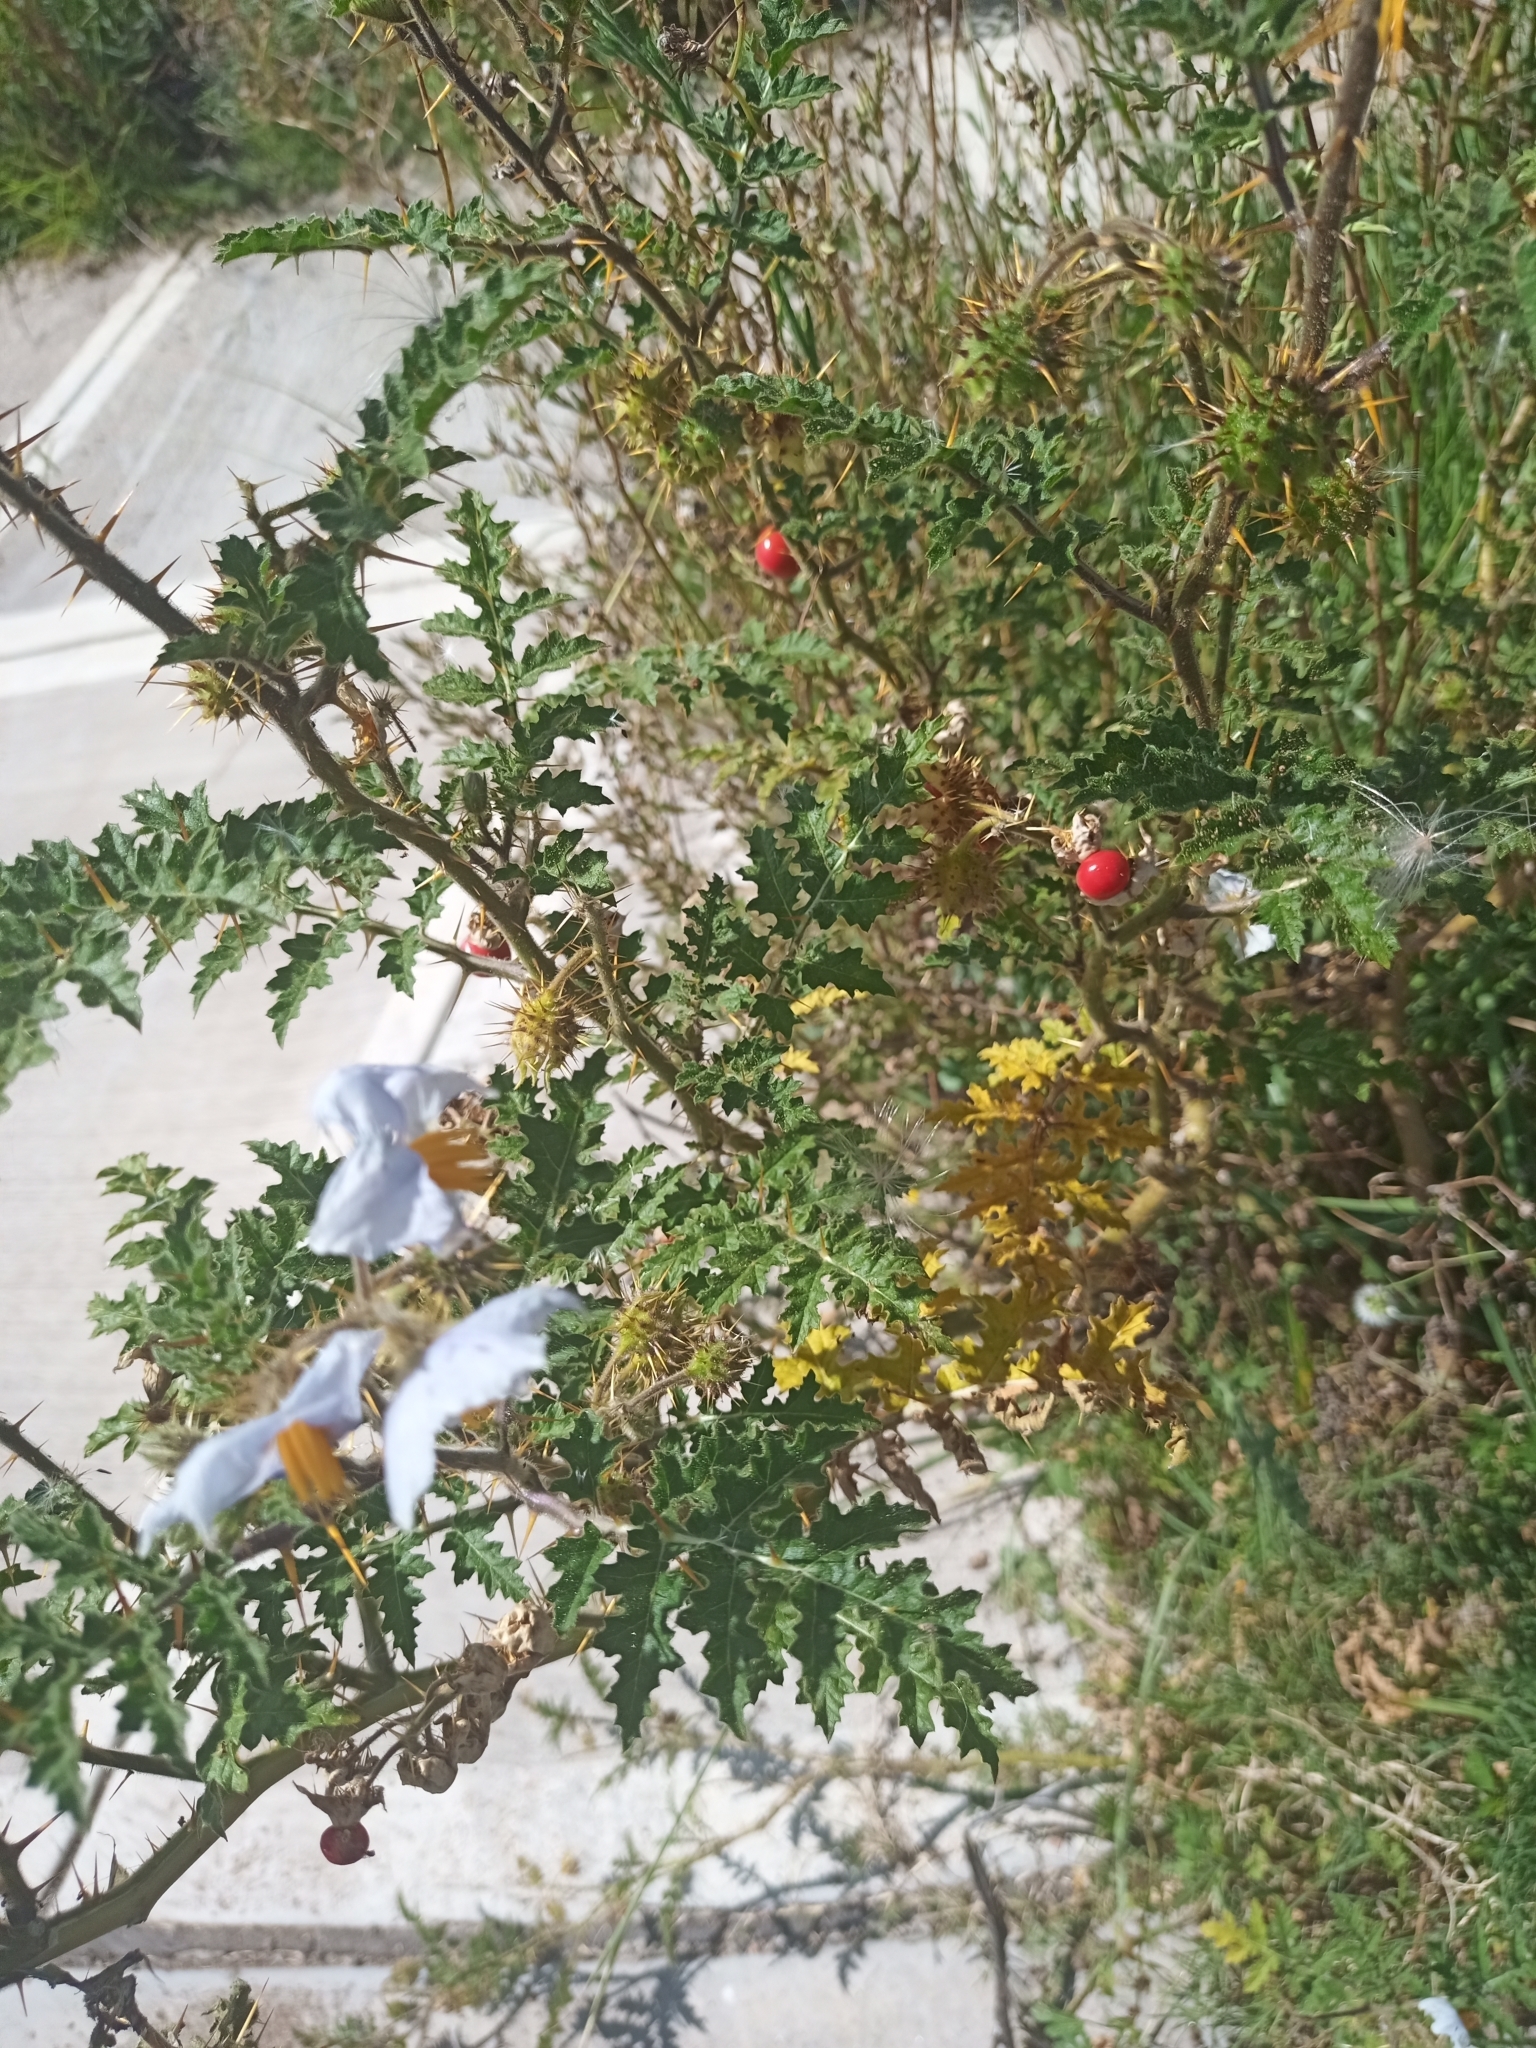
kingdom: Plantae
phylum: Tracheophyta
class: Magnoliopsida
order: Solanales
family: Solanaceae
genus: Solanum
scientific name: Solanum sisymbriifolium
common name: Red buffalo-bur
